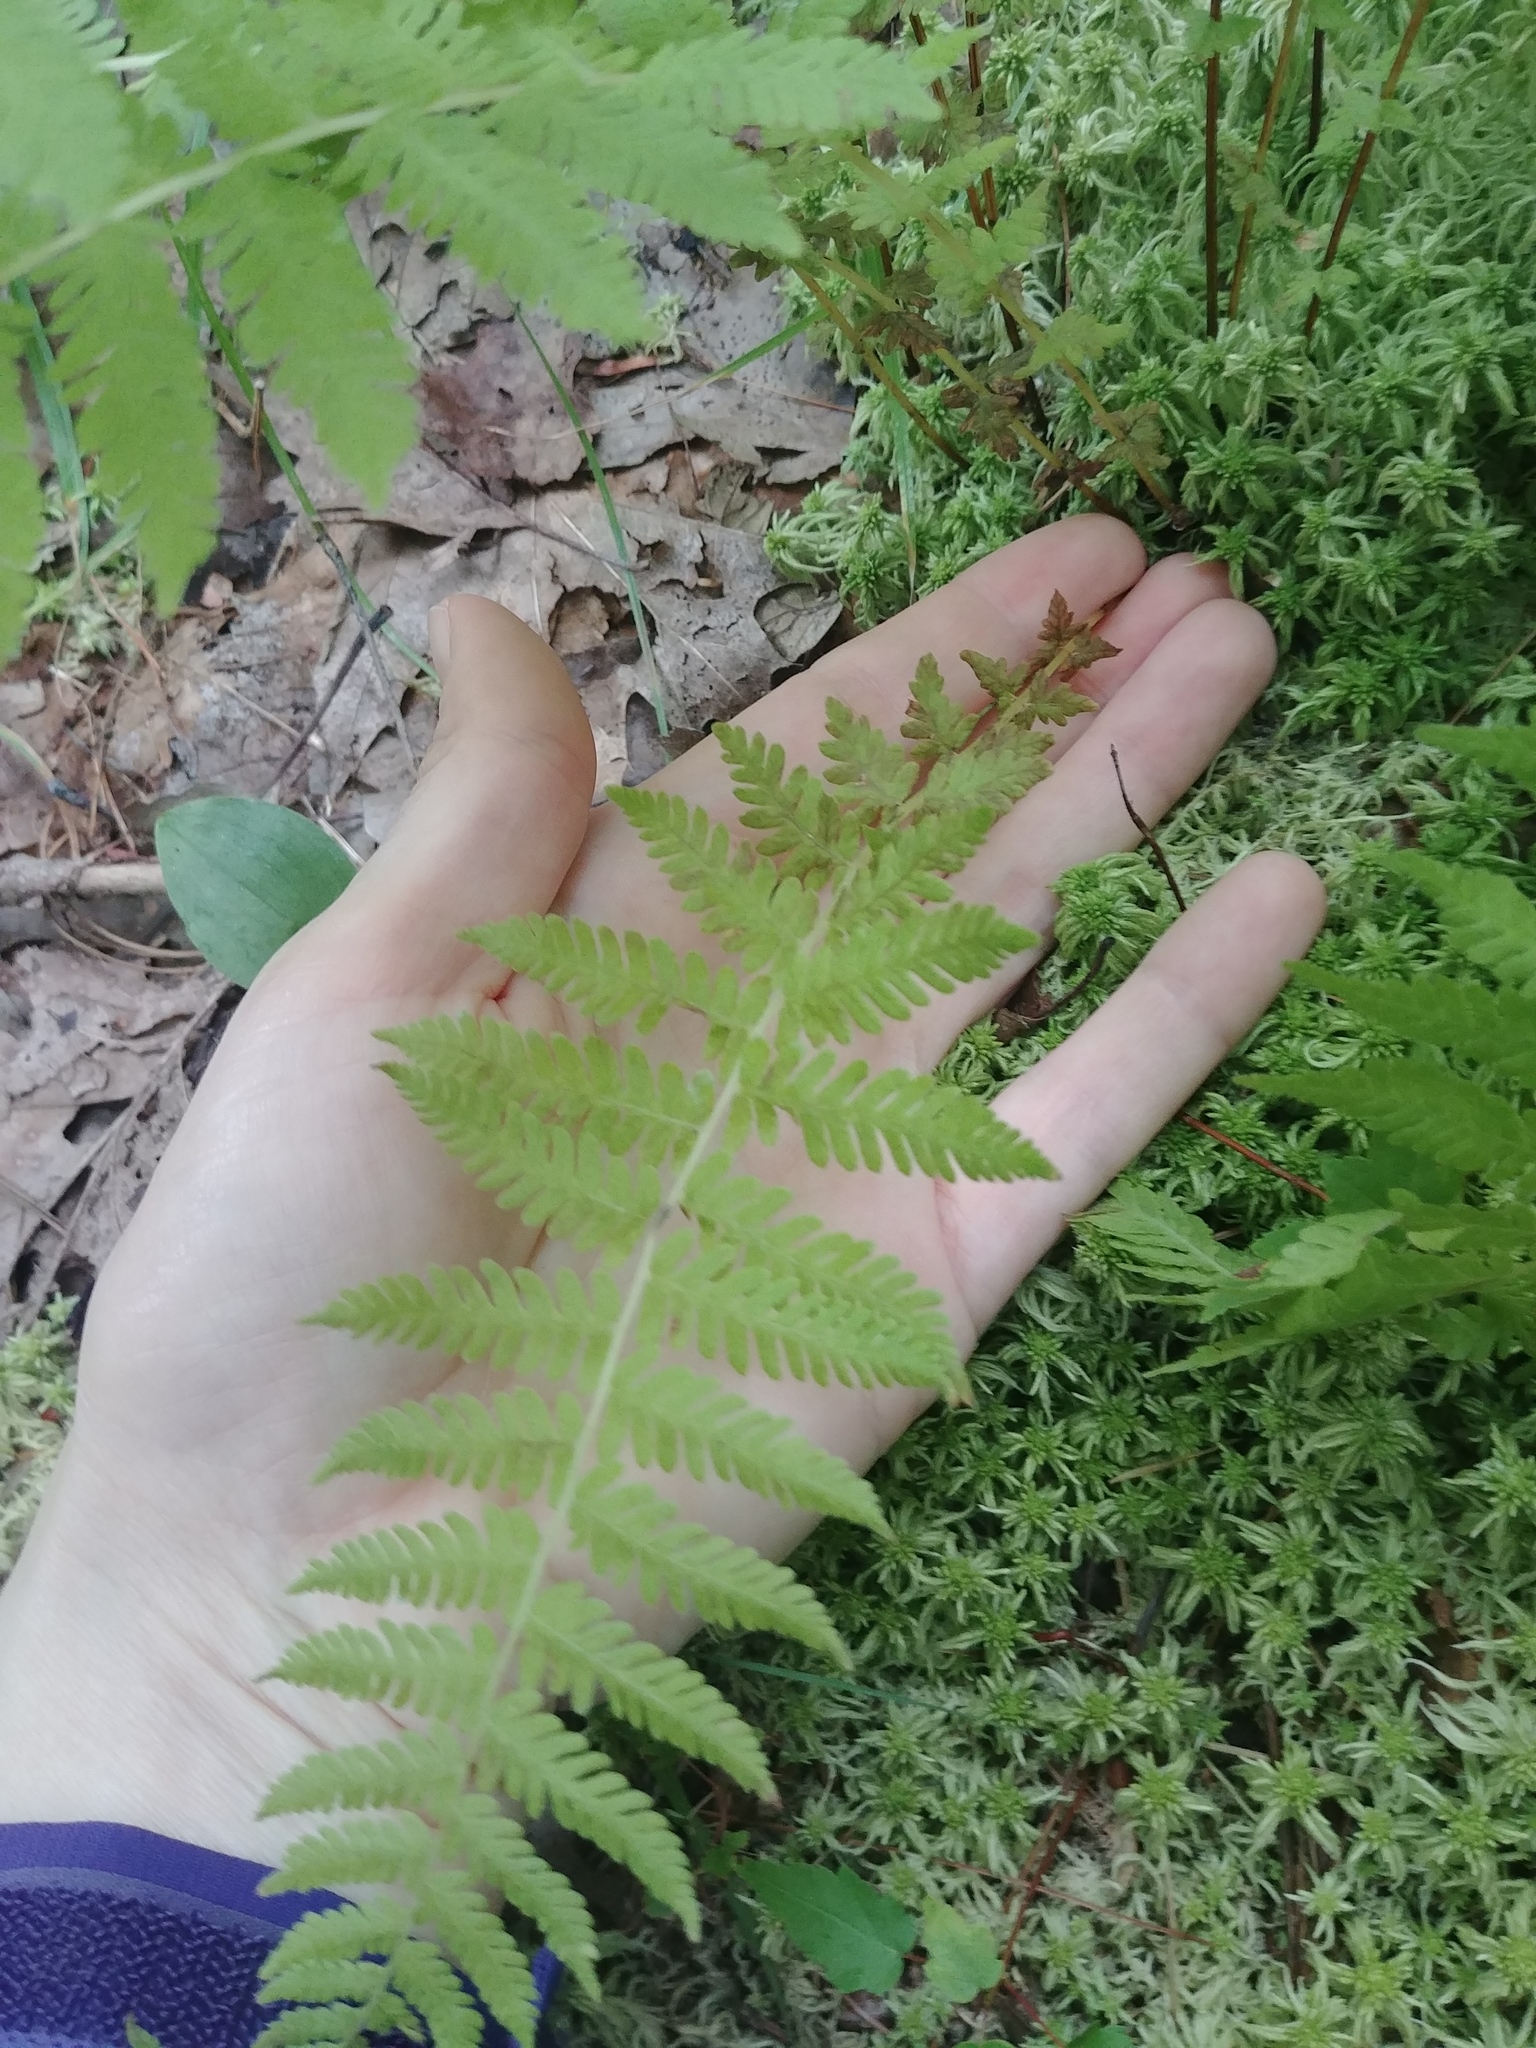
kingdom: Plantae
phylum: Tracheophyta
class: Polypodiopsida
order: Polypodiales
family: Thelypteridaceae
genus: Amauropelta
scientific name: Amauropelta noveboracensis
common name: New york fern
